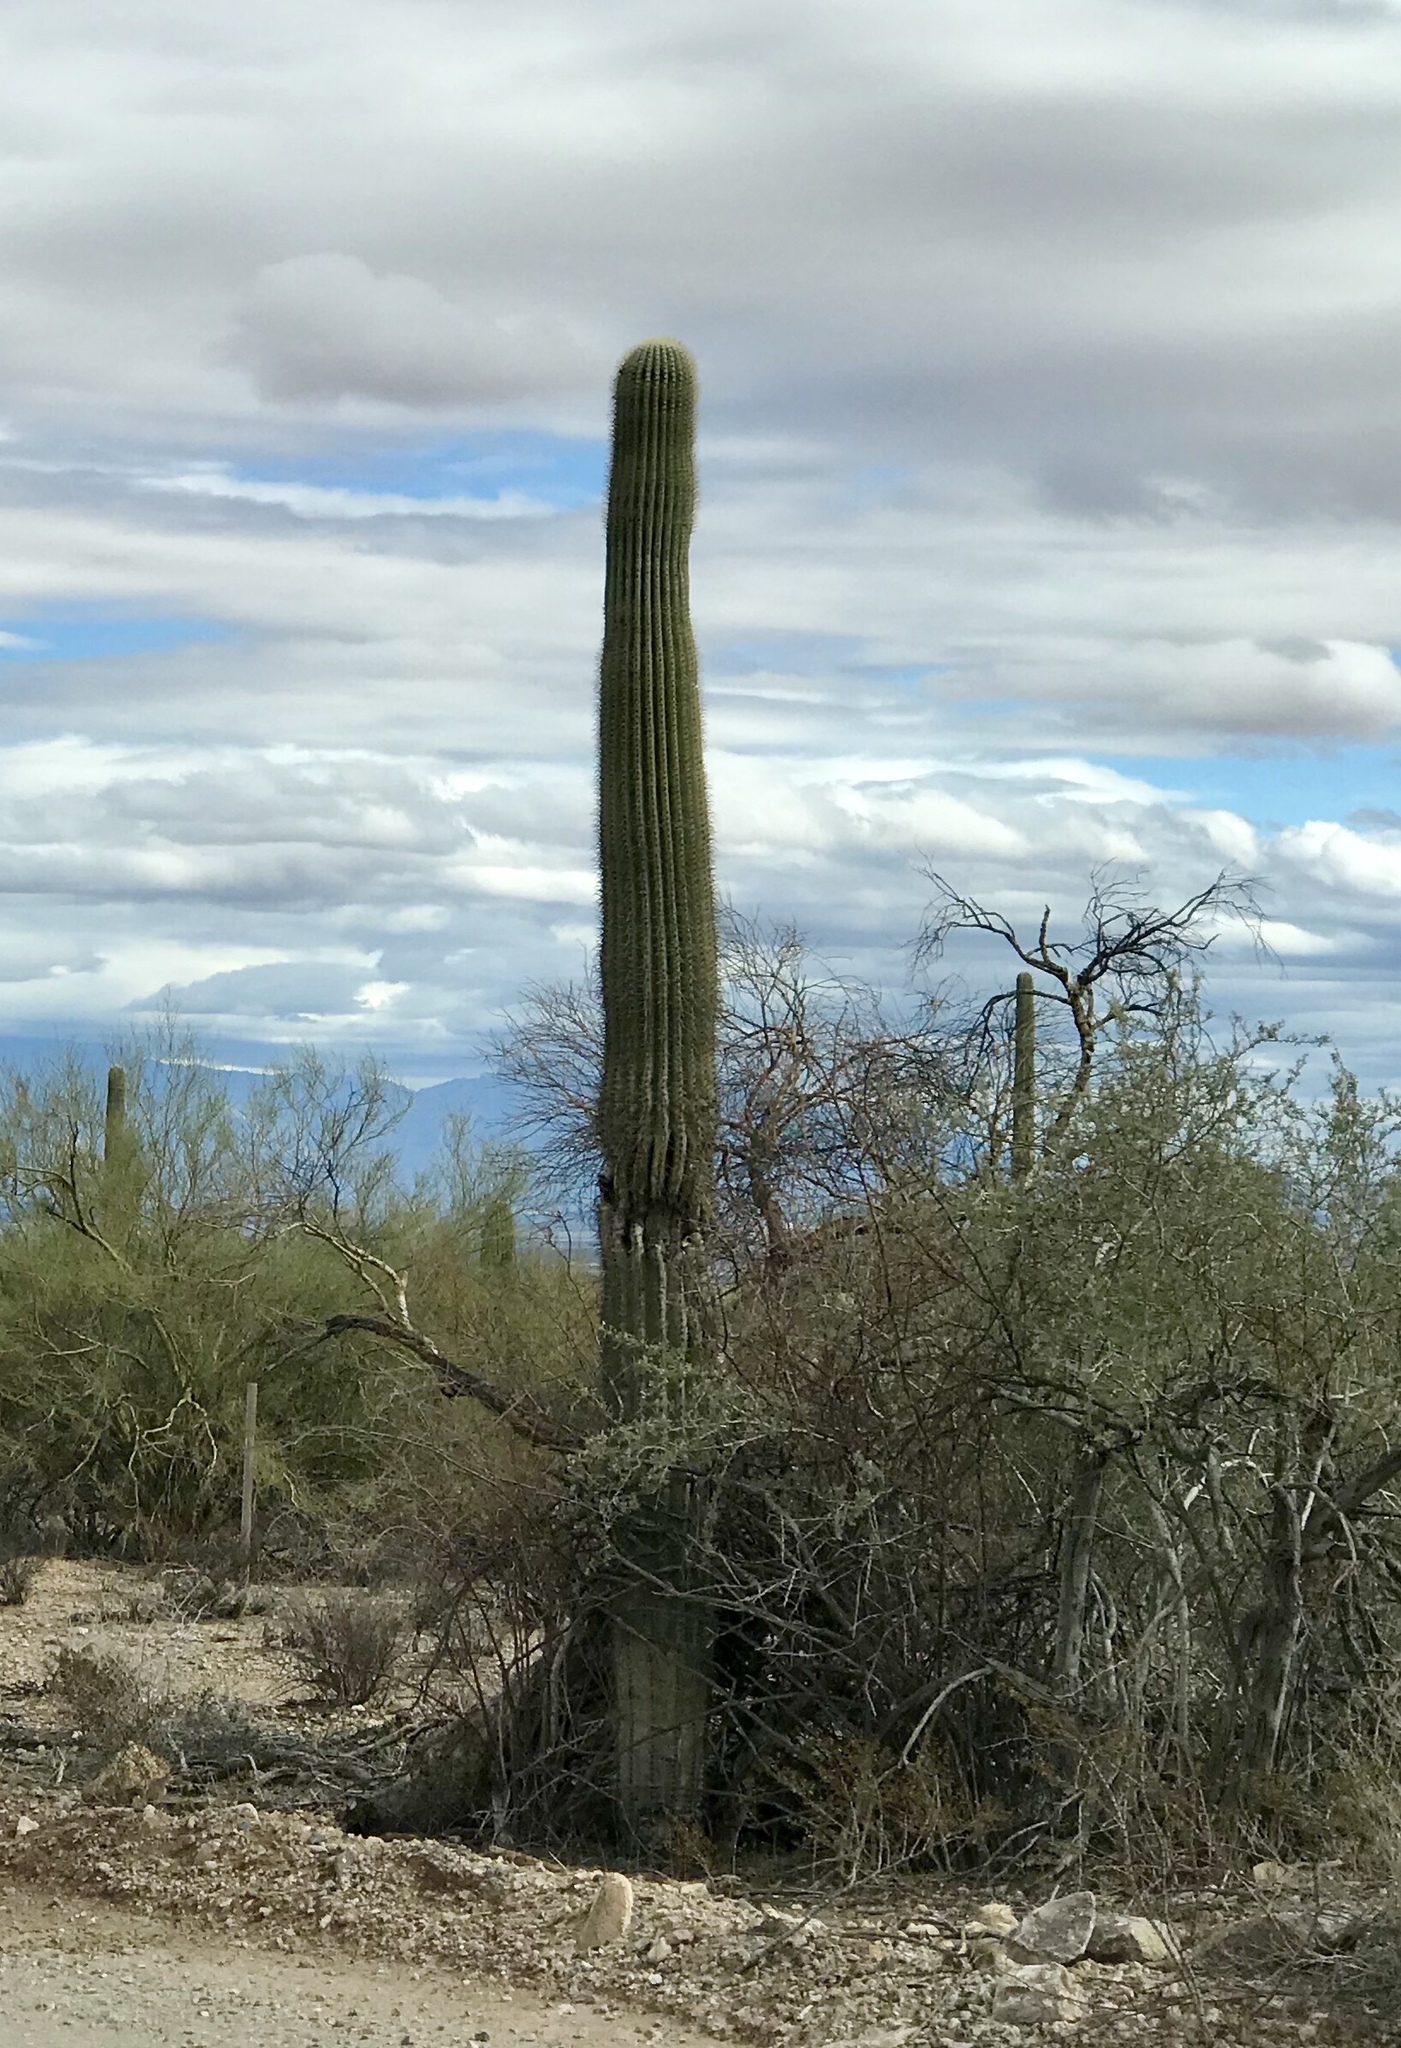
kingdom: Plantae
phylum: Tracheophyta
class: Magnoliopsida
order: Caryophyllales
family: Cactaceae
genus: Carnegiea
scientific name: Carnegiea gigantea
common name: Saguaro
